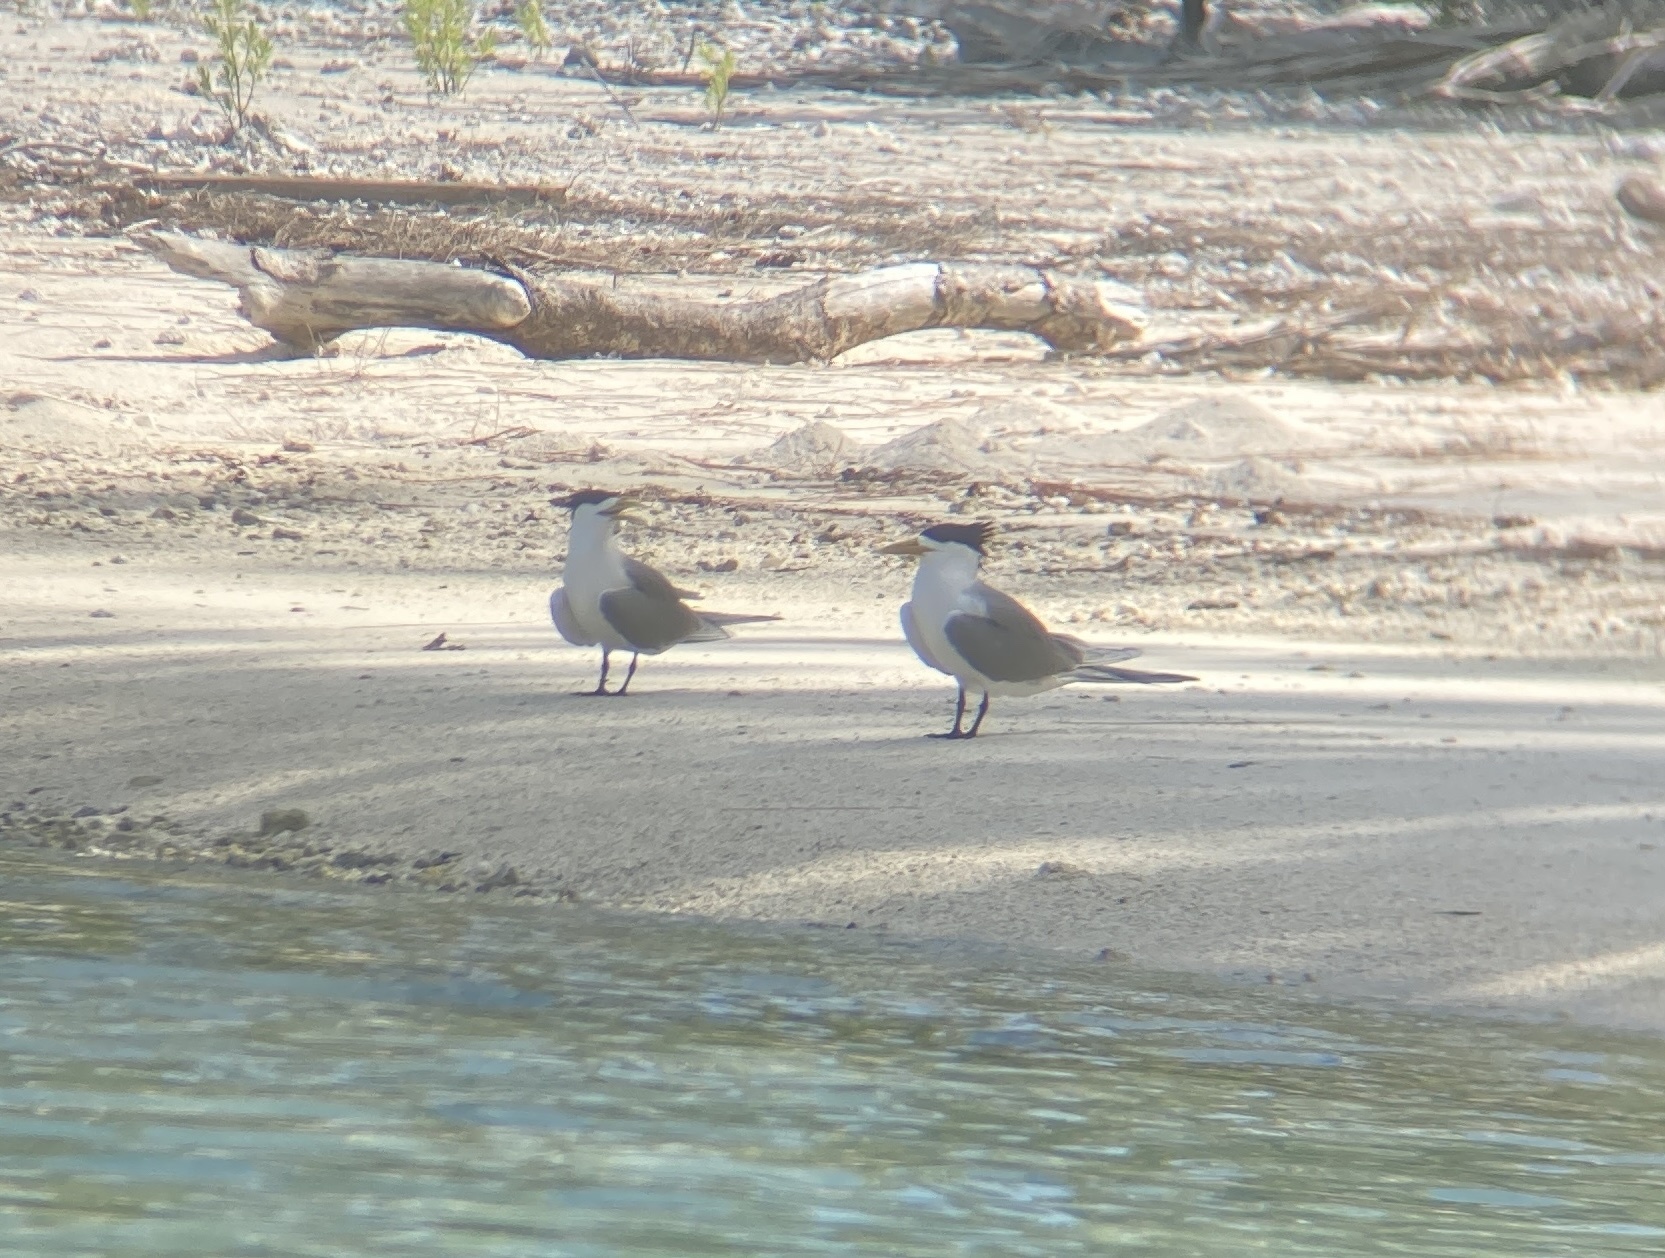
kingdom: Animalia
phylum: Chordata
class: Aves
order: Charadriiformes
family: Laridae
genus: Thalasseus
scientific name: Thalasseus bergii
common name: Greater crested tern
